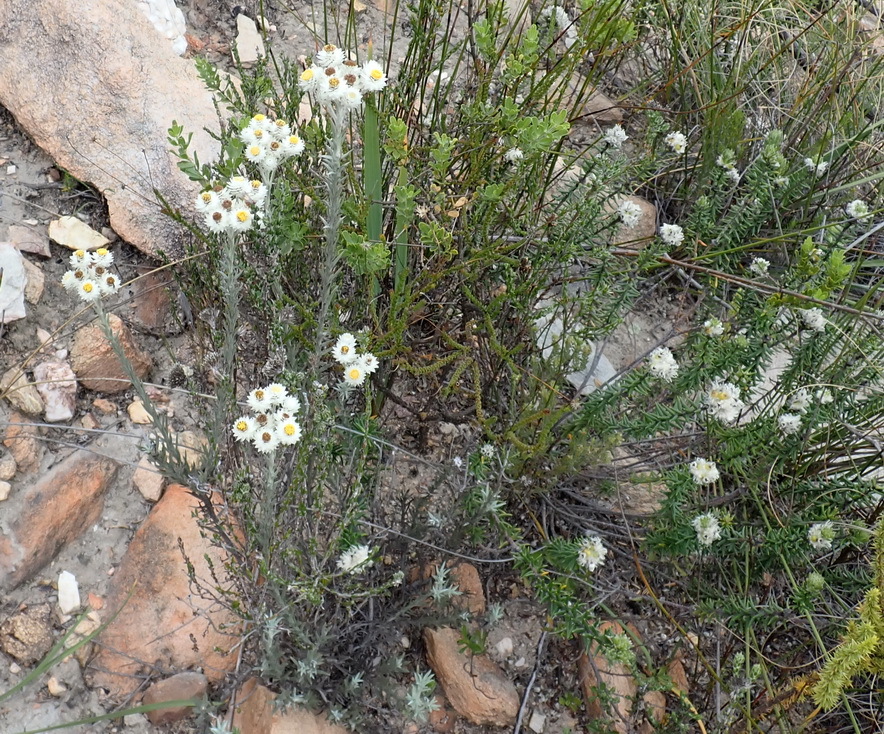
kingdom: Plantae
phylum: Tracheophyta
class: Magnoliopsida
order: Asterales
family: Asteraceae
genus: Achyranthemum
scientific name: Achyranthemum paniculatum
